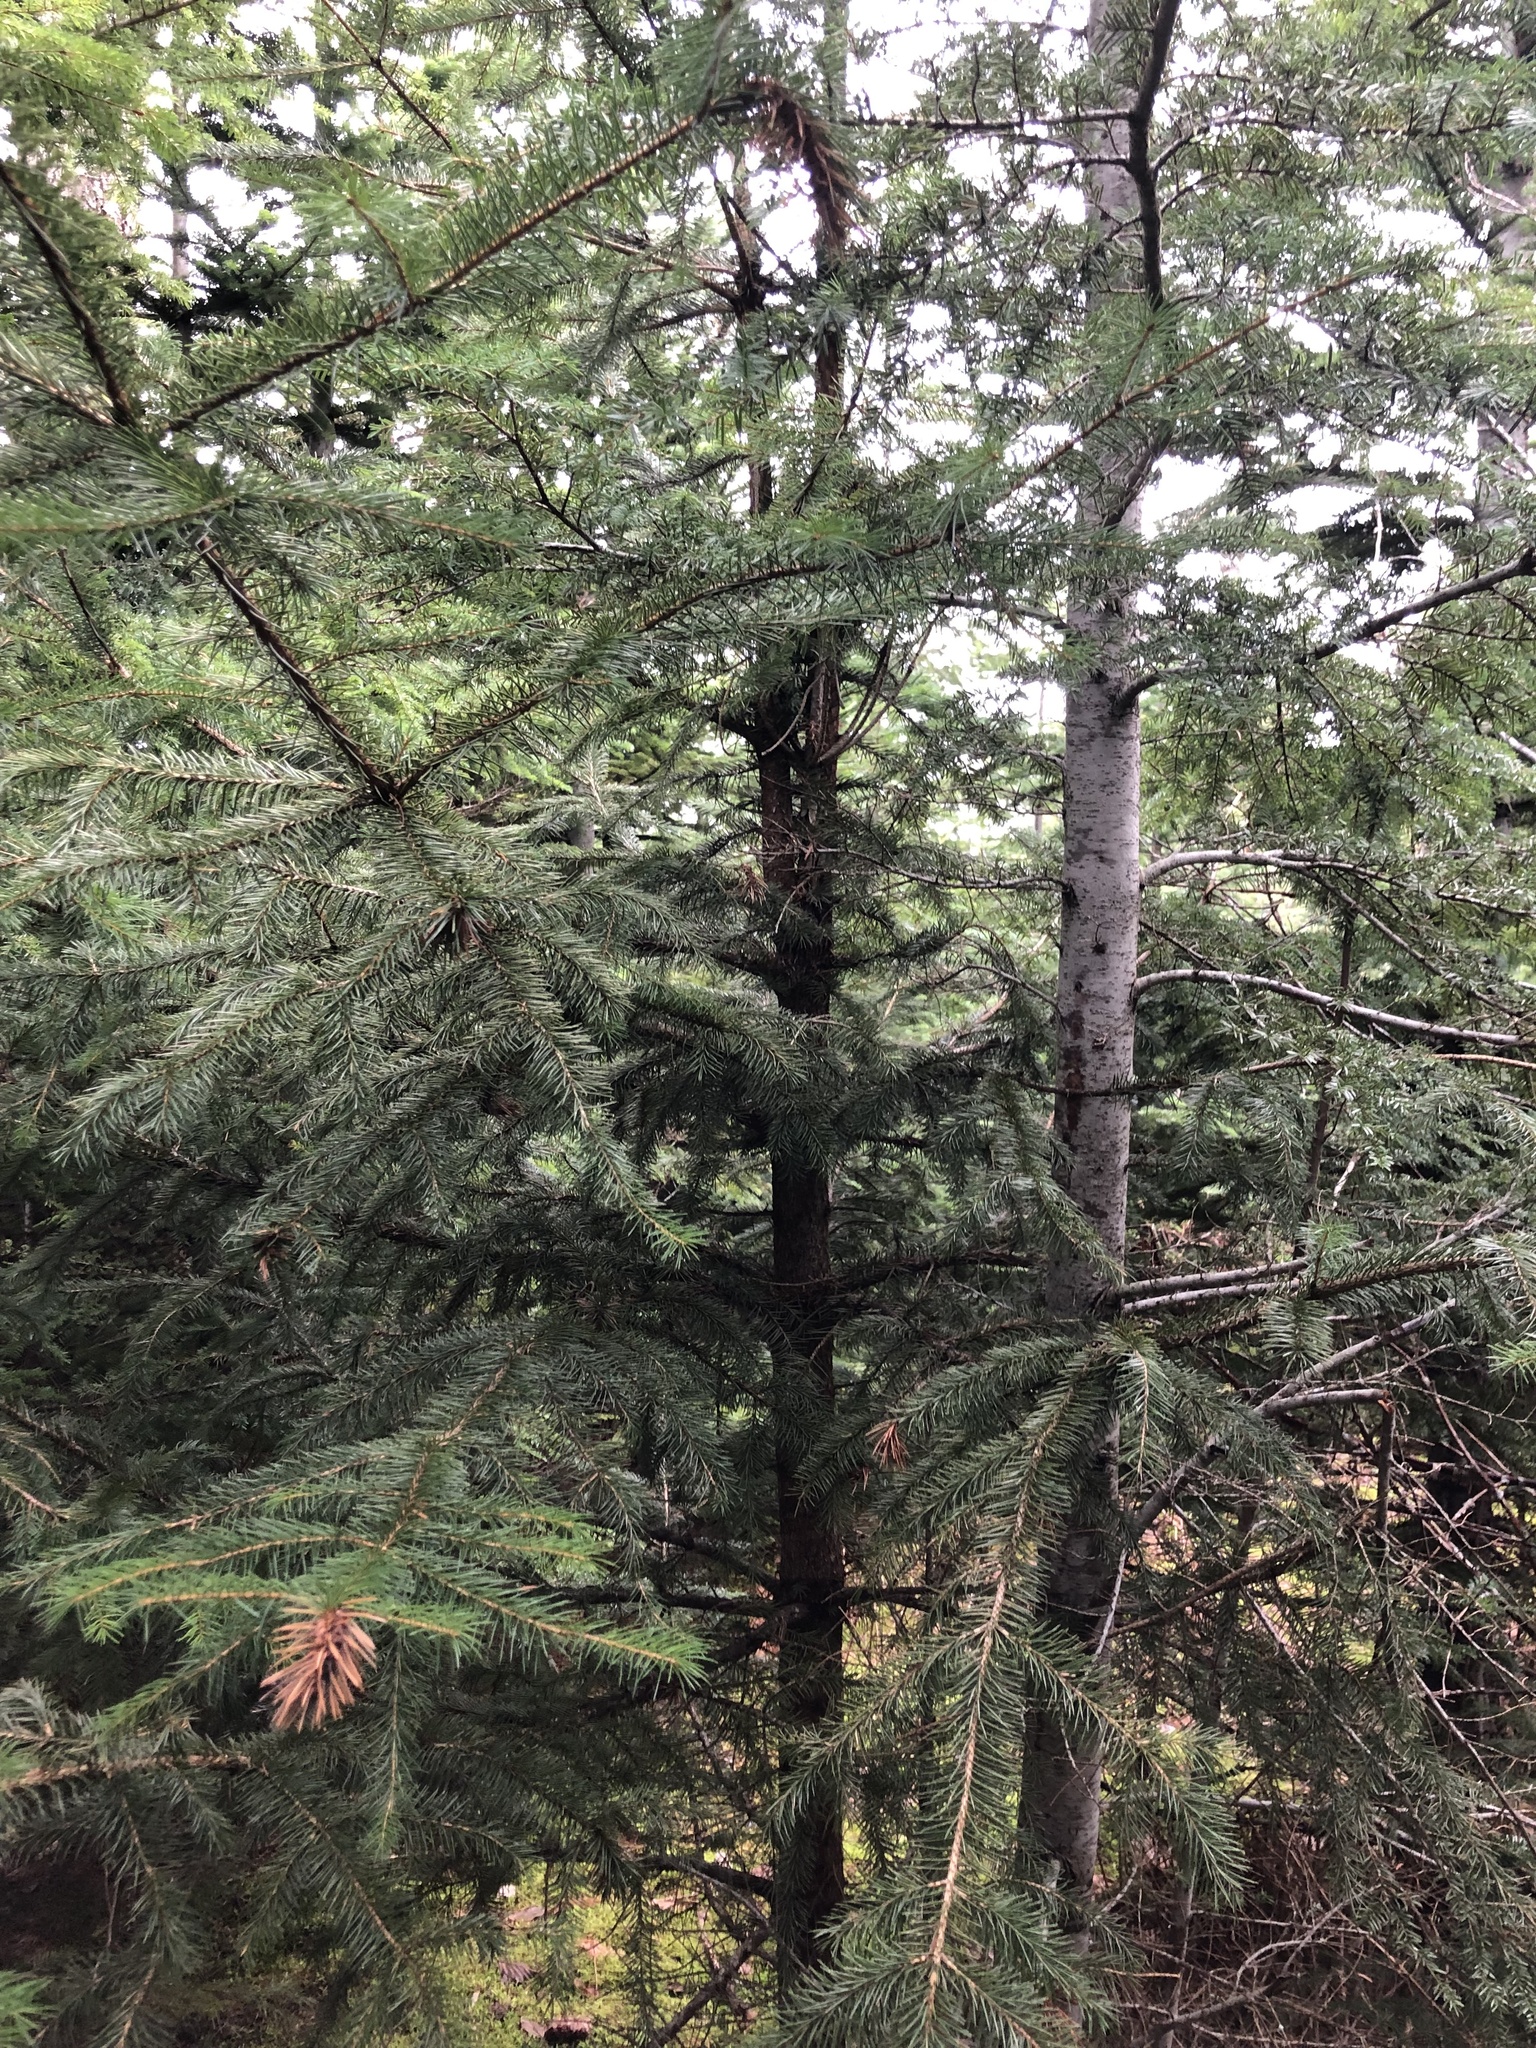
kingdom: Plantae
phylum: Tracheophyta
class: Pinopsida
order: Pinales
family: Pinaceae
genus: Picea
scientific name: Picea sitchensis
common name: Sitka spruce
